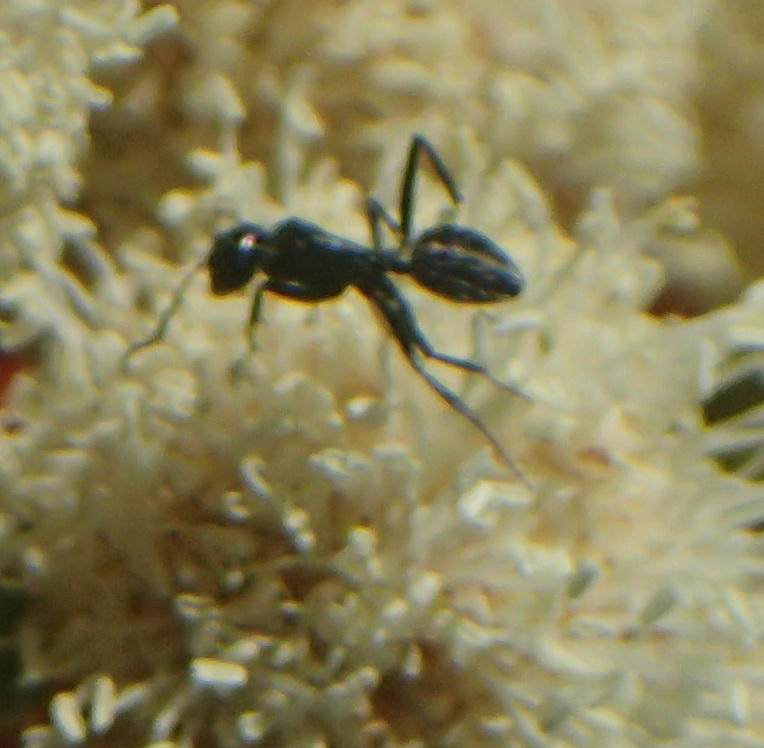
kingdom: Animalia
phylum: Arthropoda
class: Insecta
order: Hymenoptera
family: Formicidae
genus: Camponotus
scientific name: Camponotus niveosetosus
